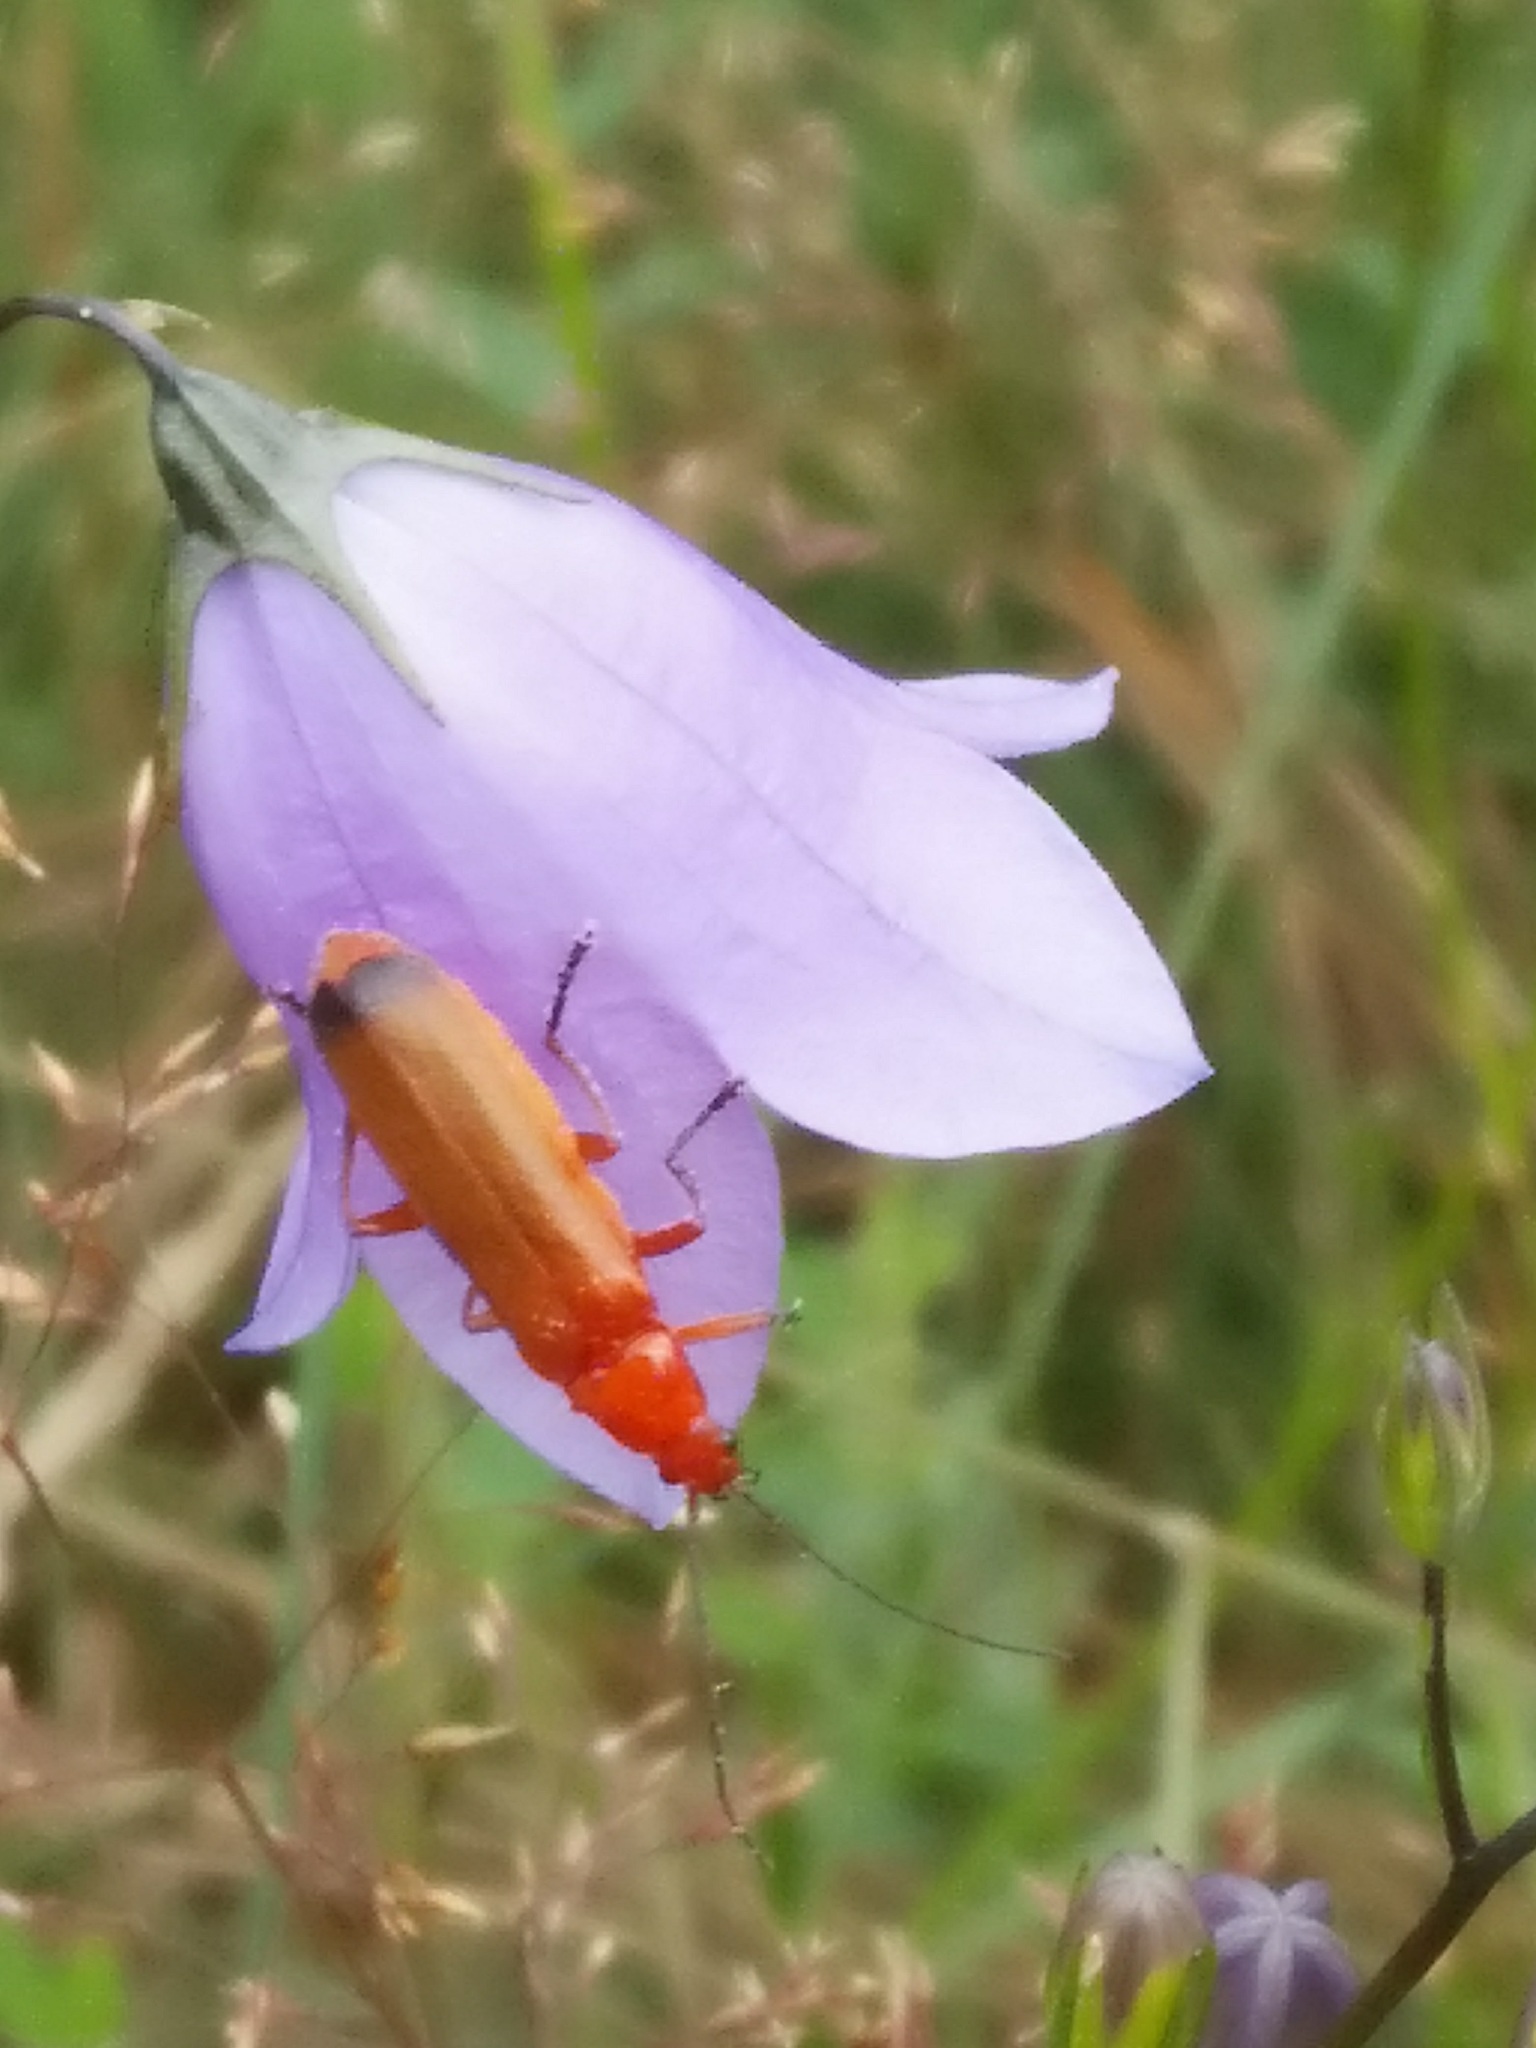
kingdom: Animalia
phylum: Arthropoda
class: Insecta
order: Coleoptera
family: Cantharidae
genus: Rhagonycha
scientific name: Rhagonycha fulva
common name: Common red soldier beetle
